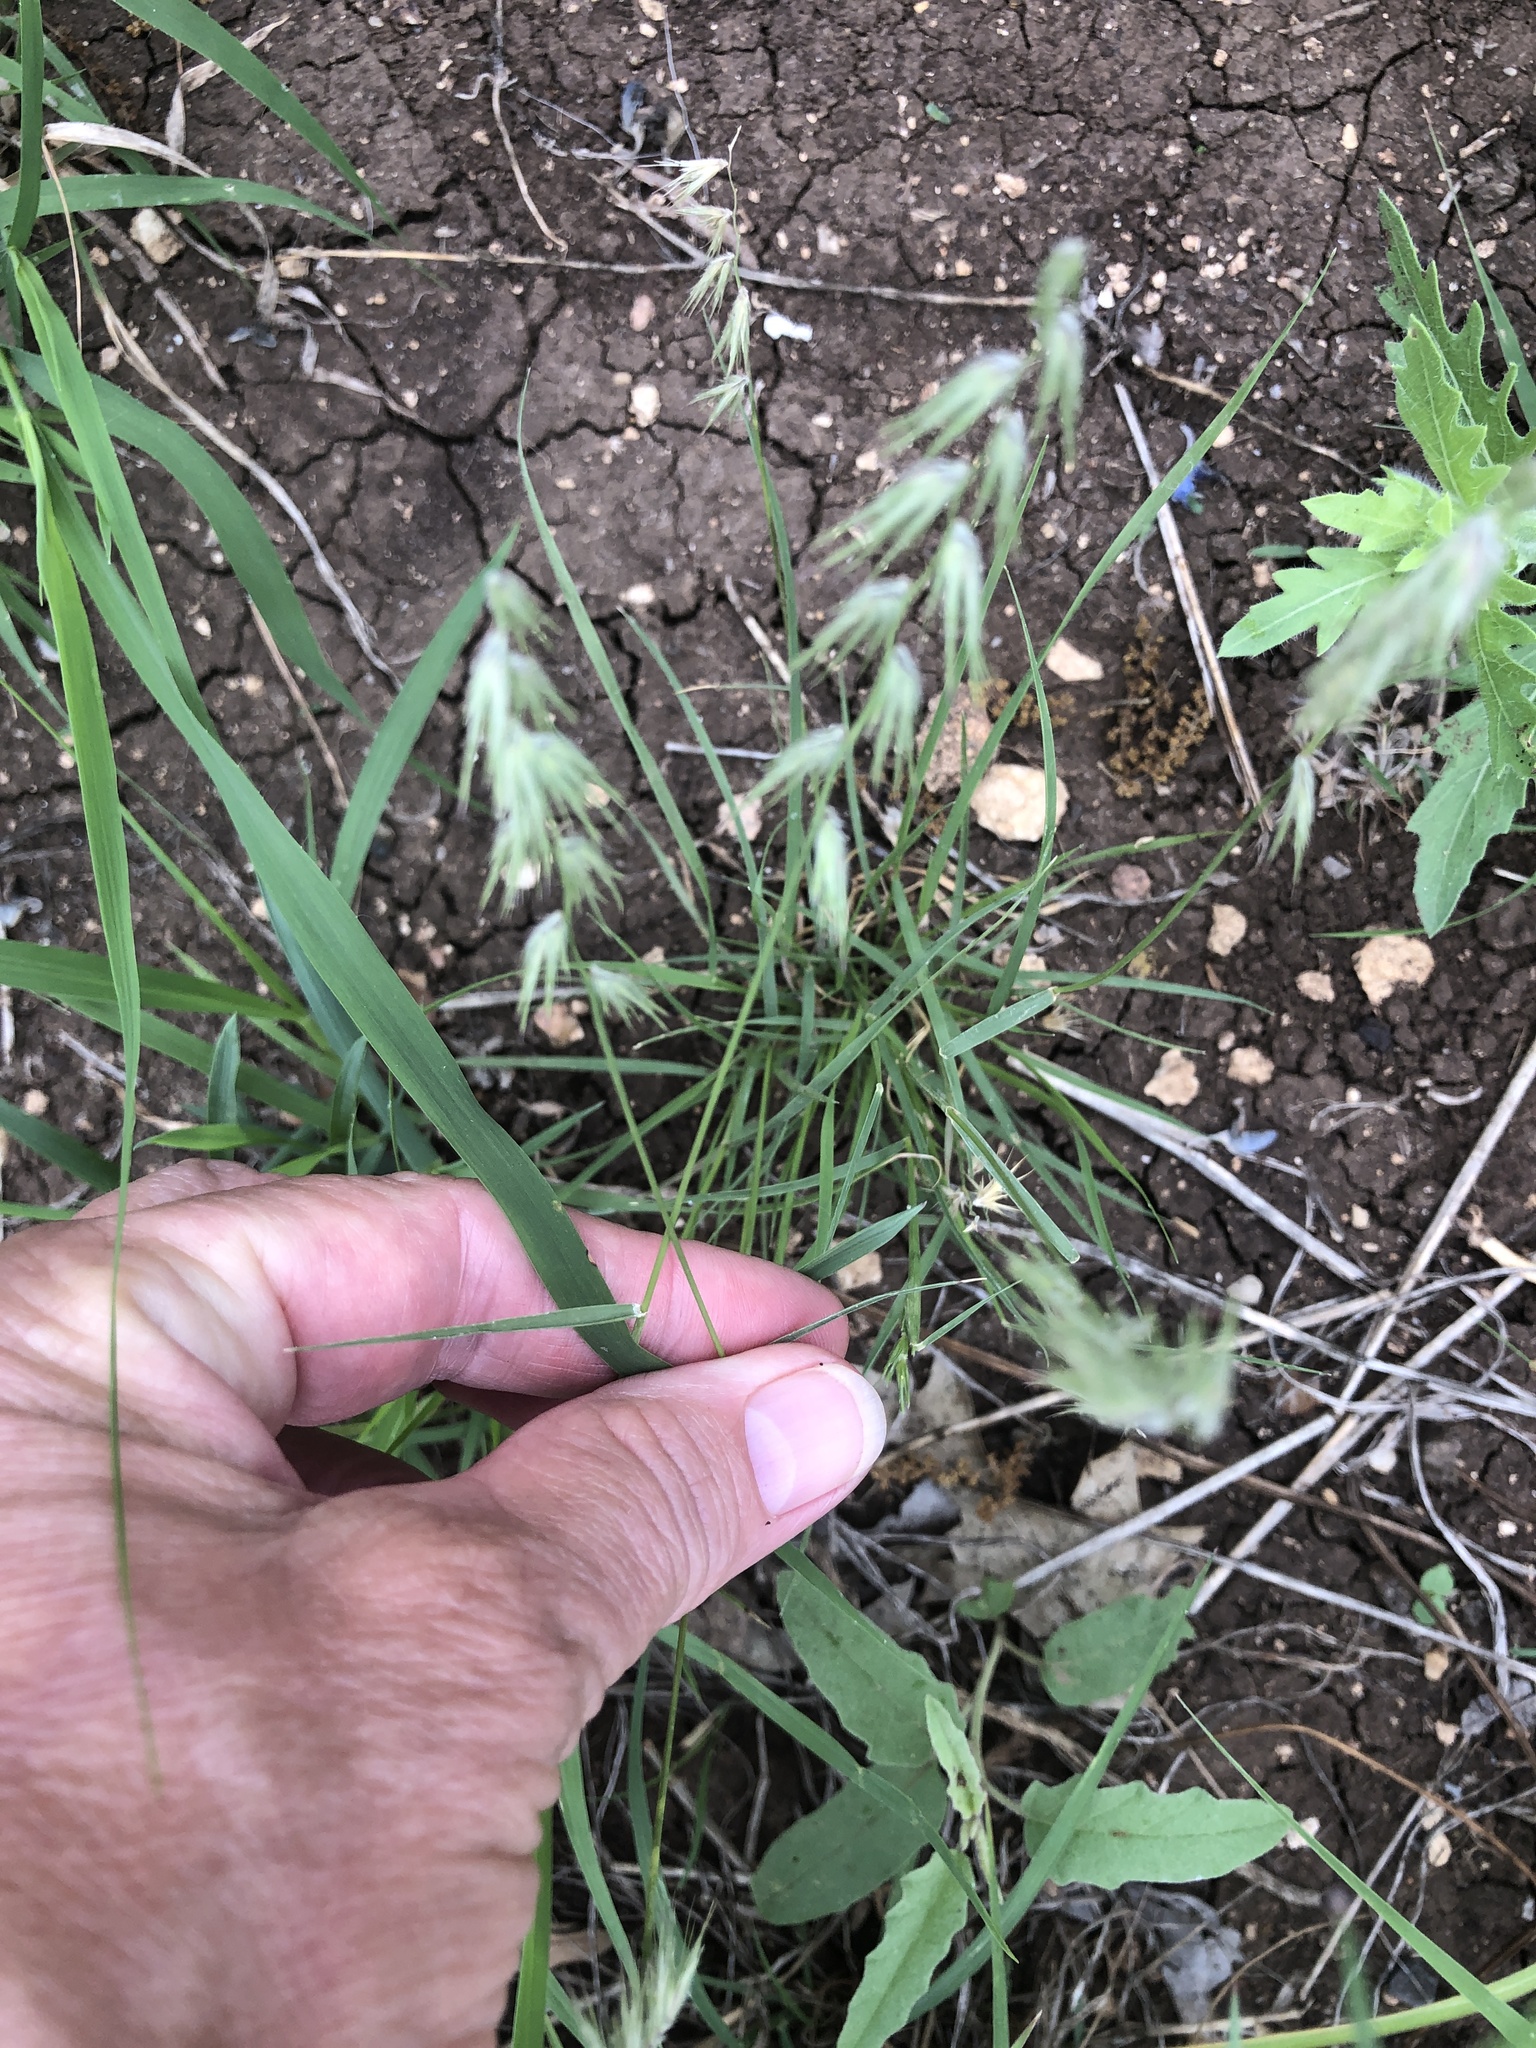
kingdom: Plantae
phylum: Tracheophyta
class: Liliopsida
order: Poales
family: Poaceae
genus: Bouteloua
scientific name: Bouteloua rigidiseta
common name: Texas grama
